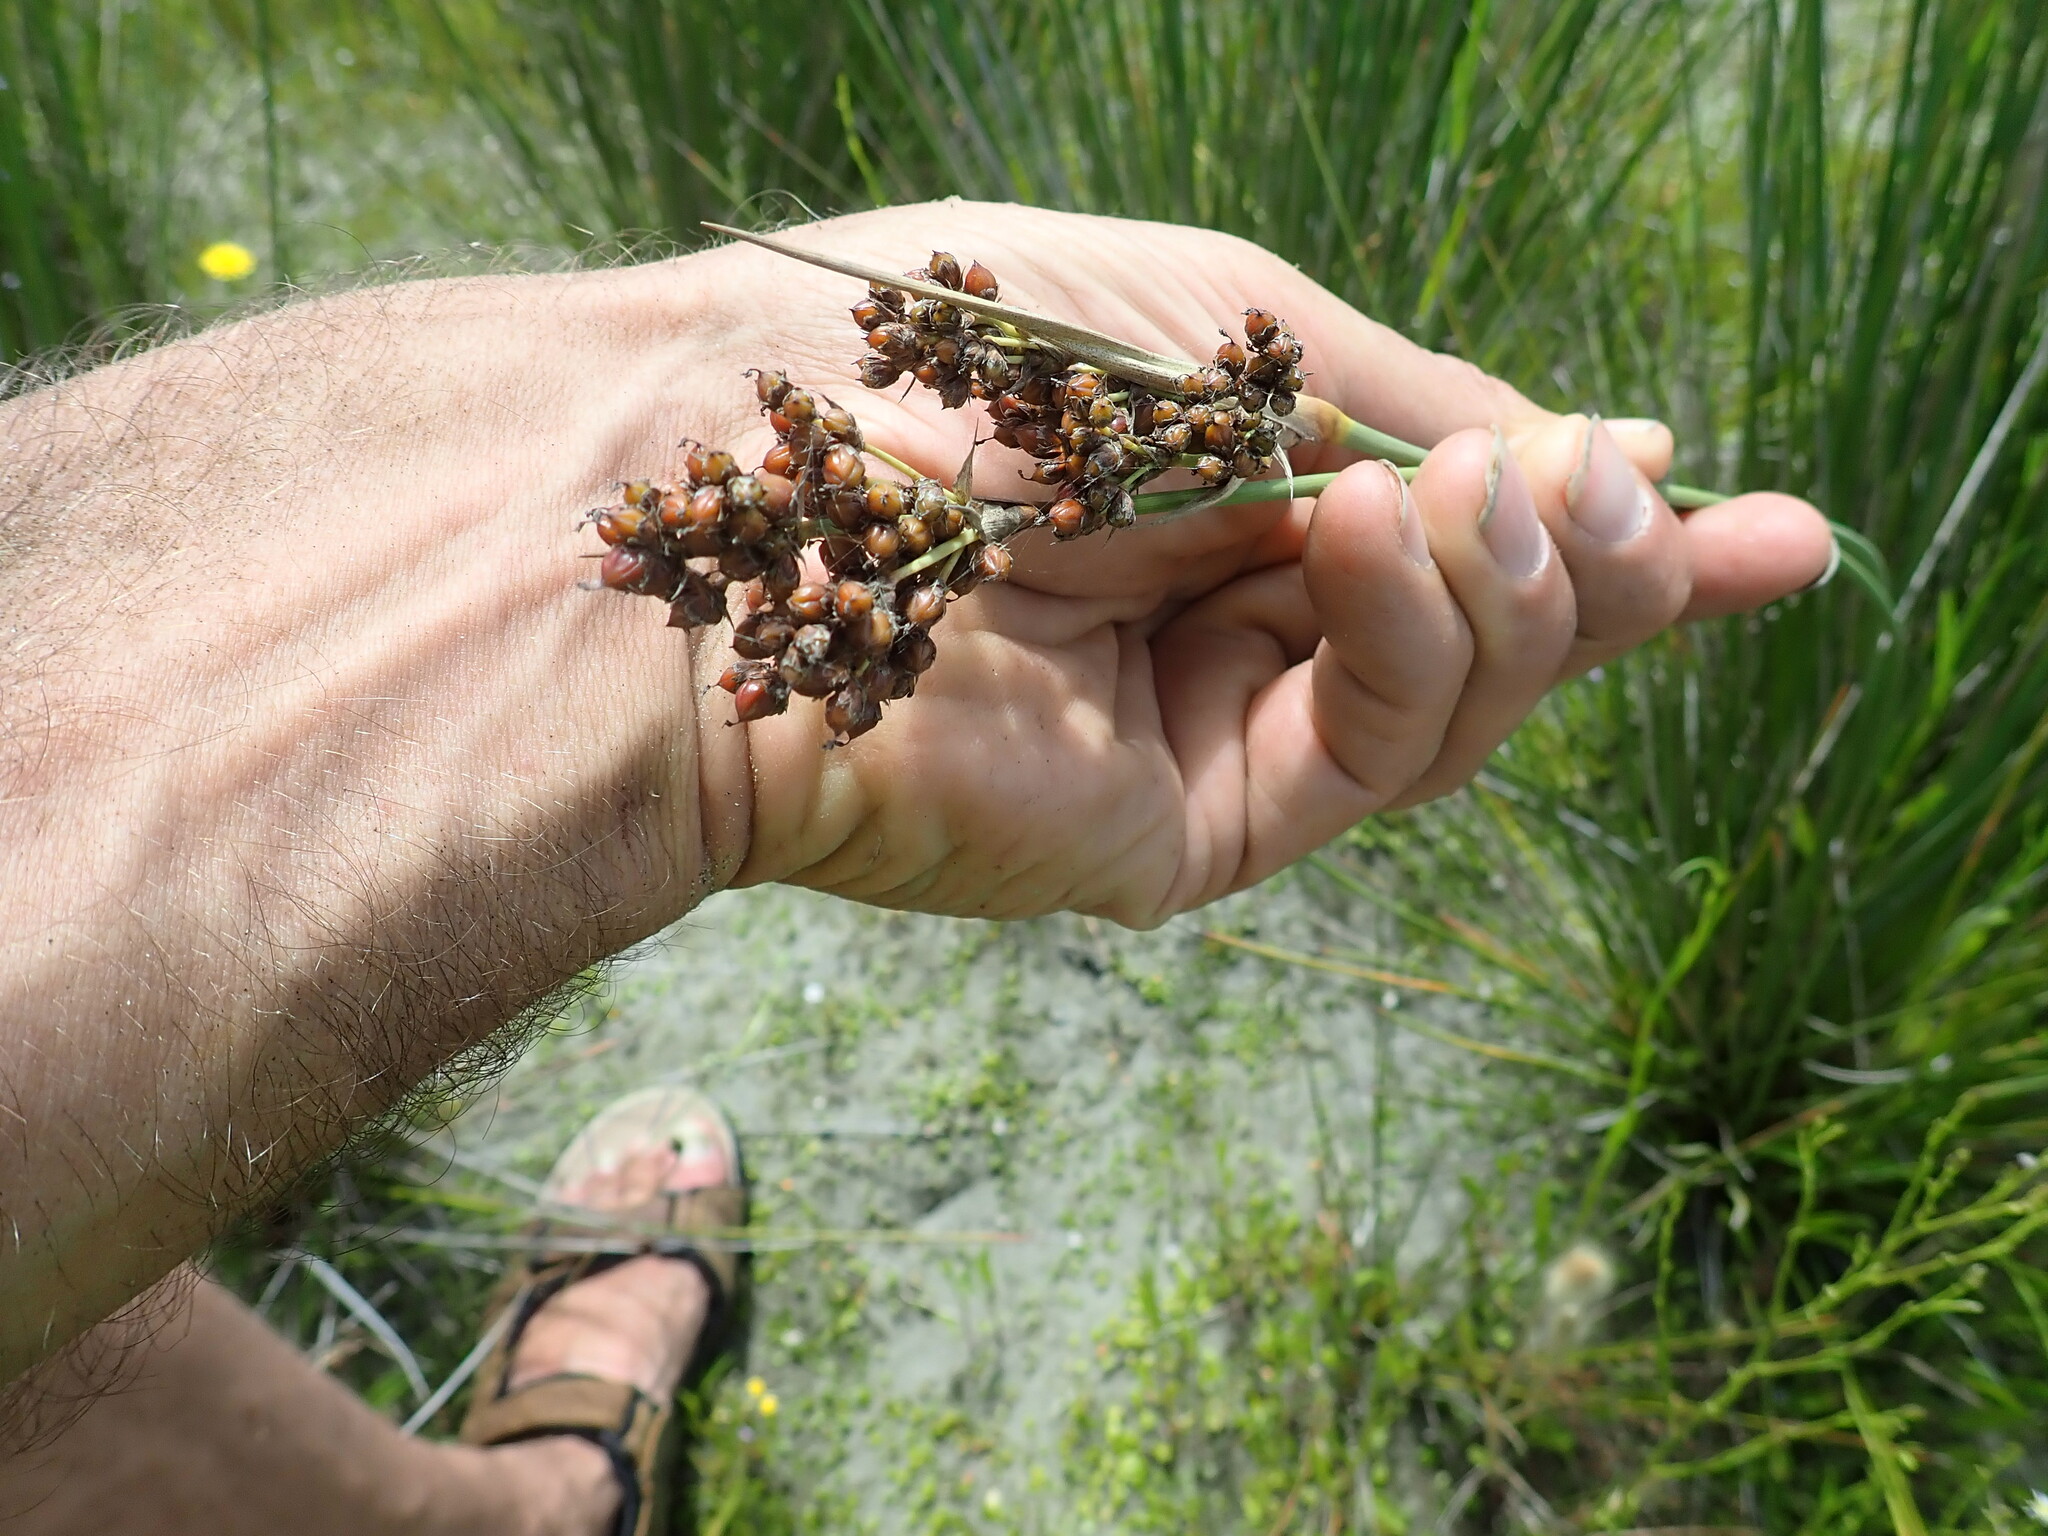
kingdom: Plantae
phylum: Tracheophyta
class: Liliopsida
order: Poales
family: Juncaceae
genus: Juncus
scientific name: Juncus acutus
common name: Sharp rush
